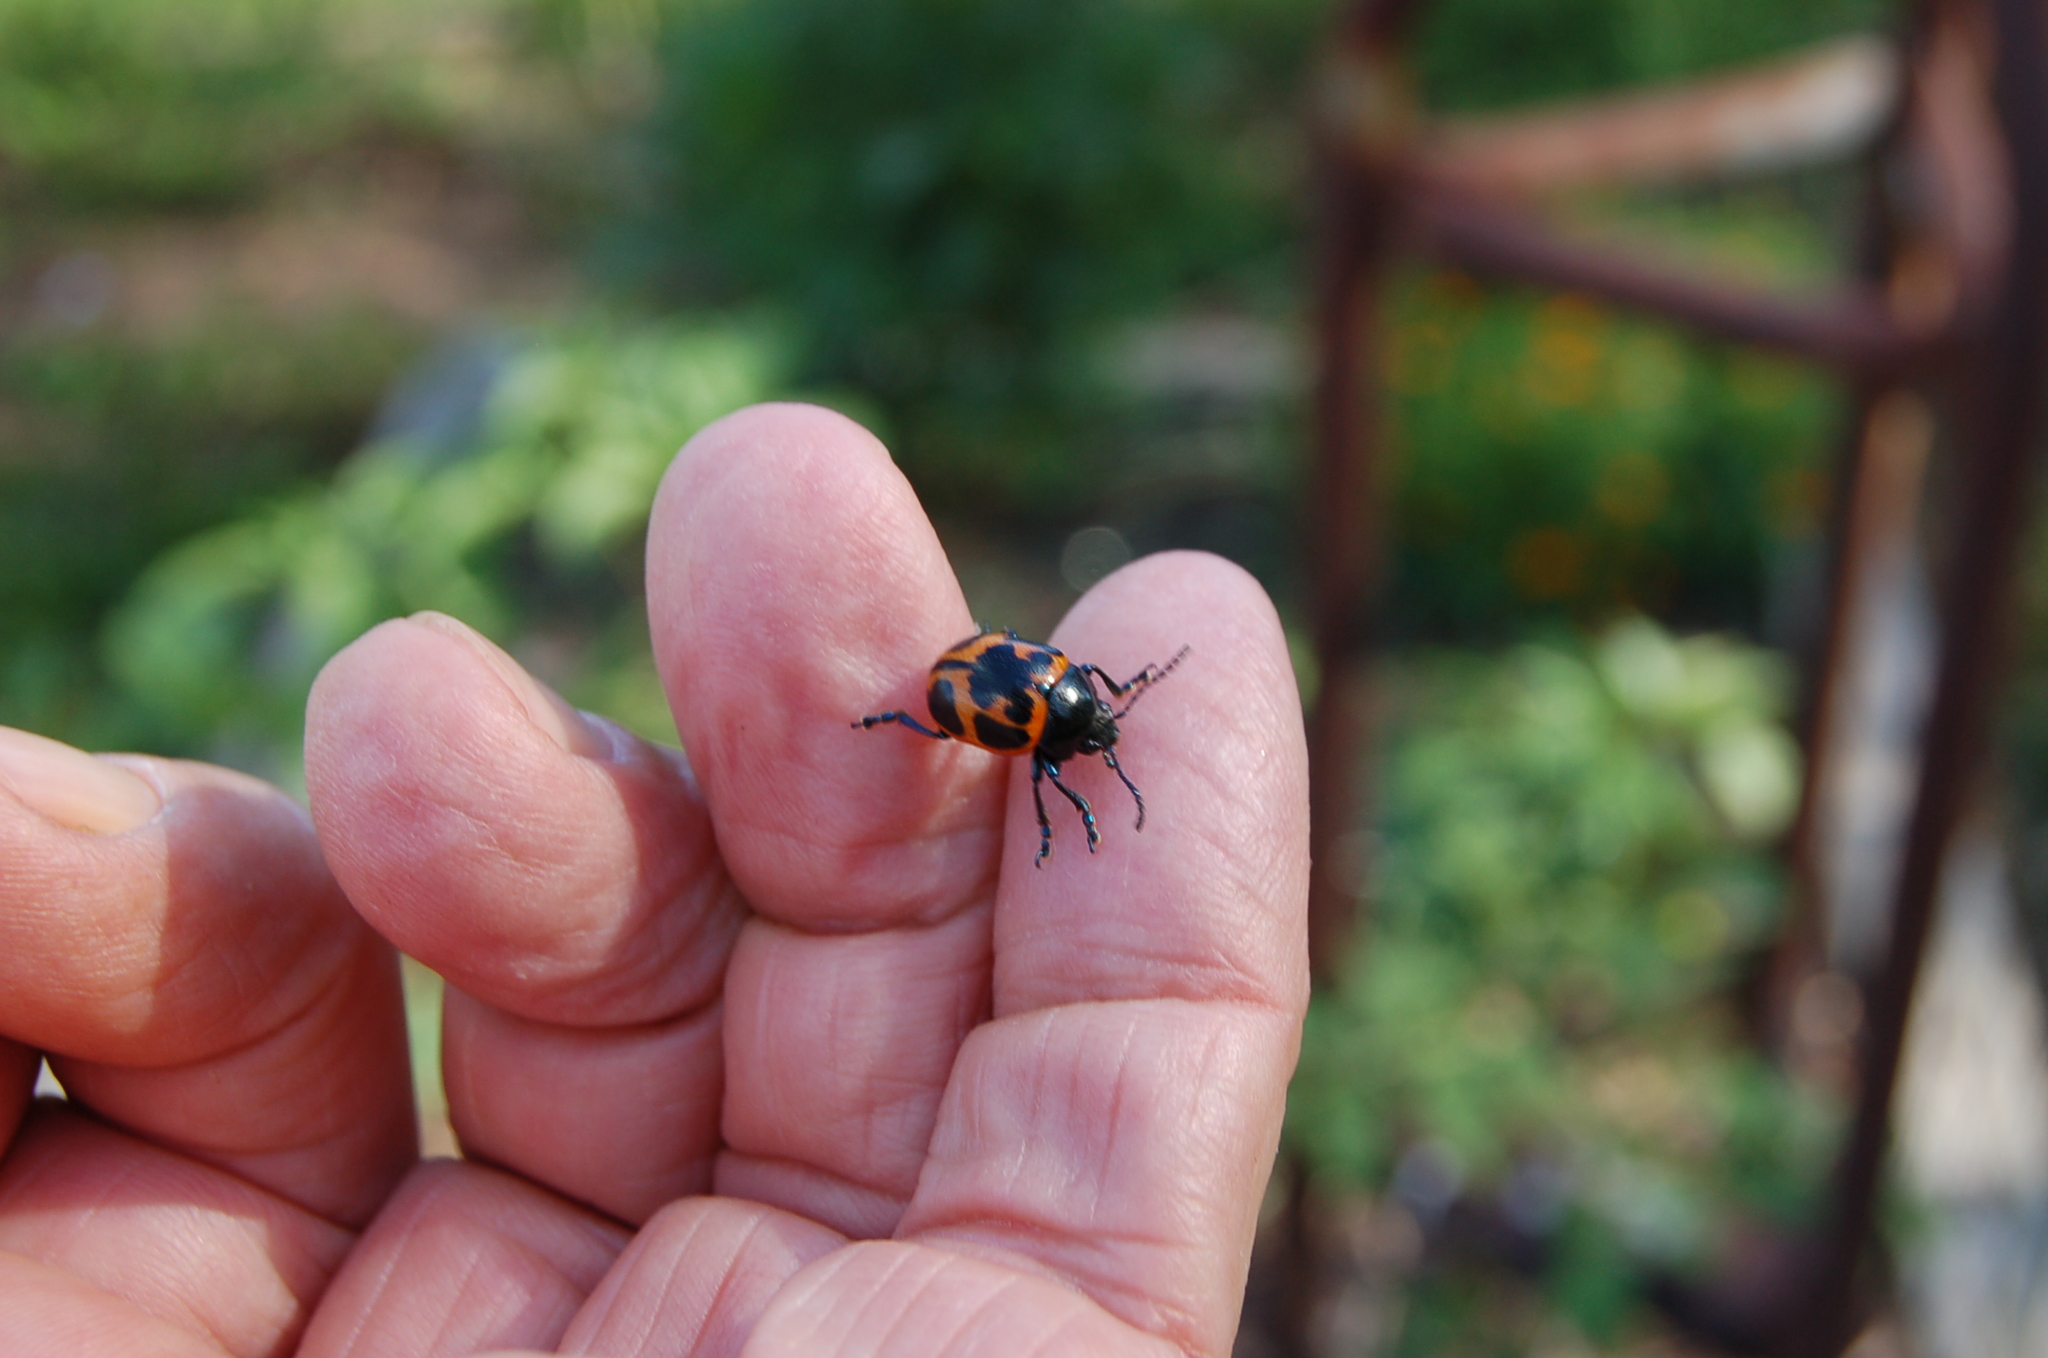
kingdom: Animalia
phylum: Arthropoda
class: Insecta
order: Coleoptera
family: Chrysomelidae
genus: Labidomera
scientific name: Labidomera clivicollis
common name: Swamp milkweed leaf beetle
